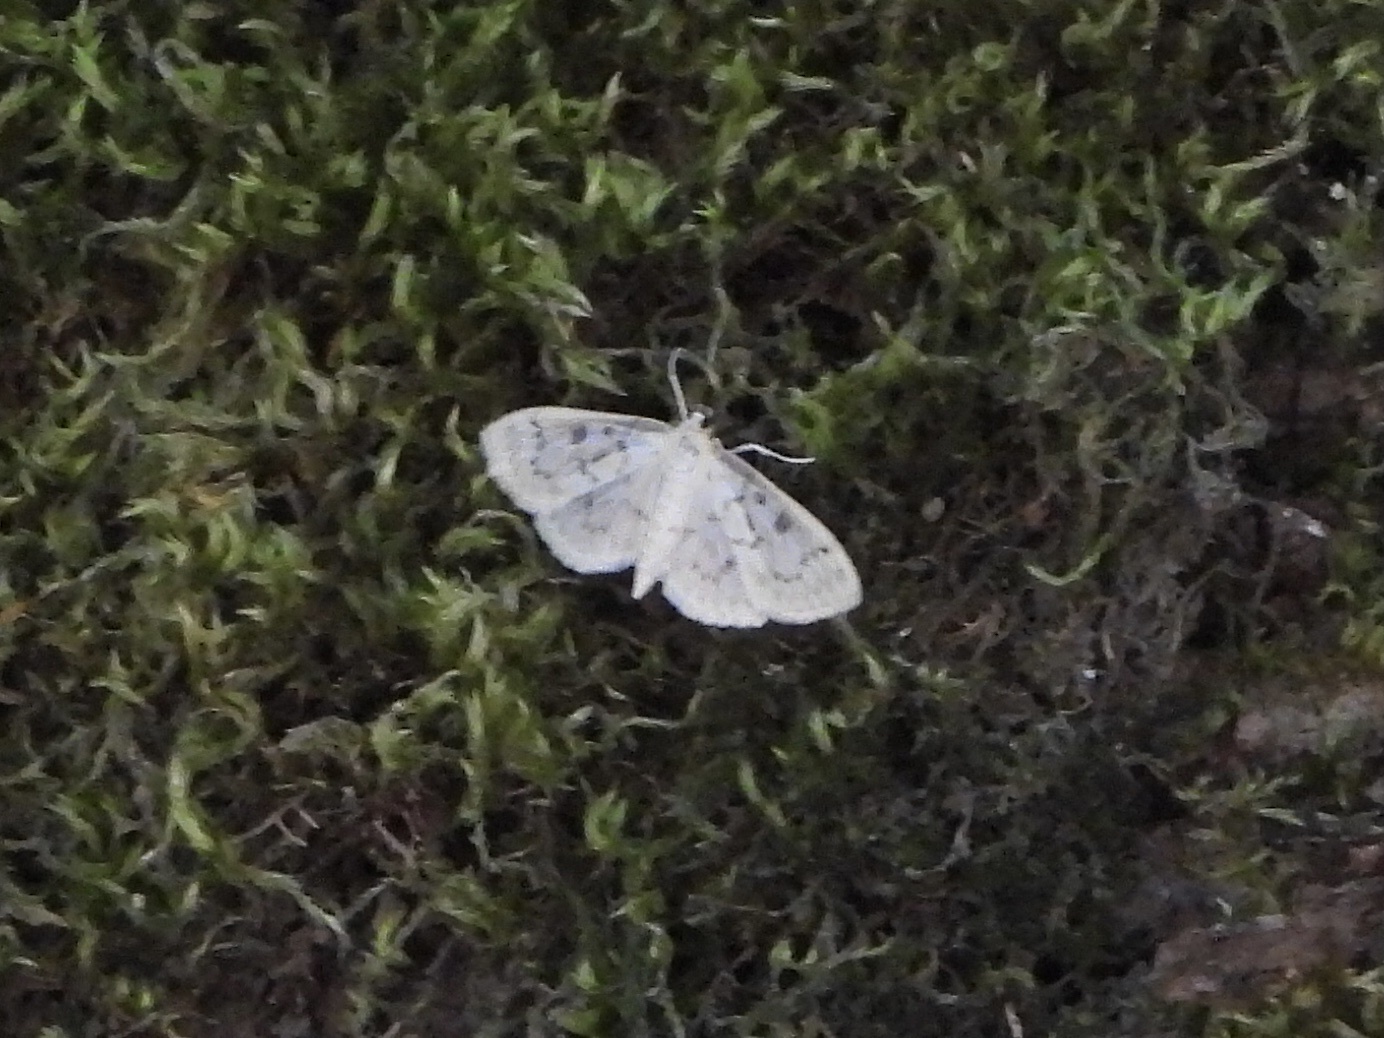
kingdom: Animalia
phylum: Arthropoda
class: Insecta
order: Lepidoptera
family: Crambidae
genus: Herpetogramma
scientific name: Herpetogramma aquilonalis
